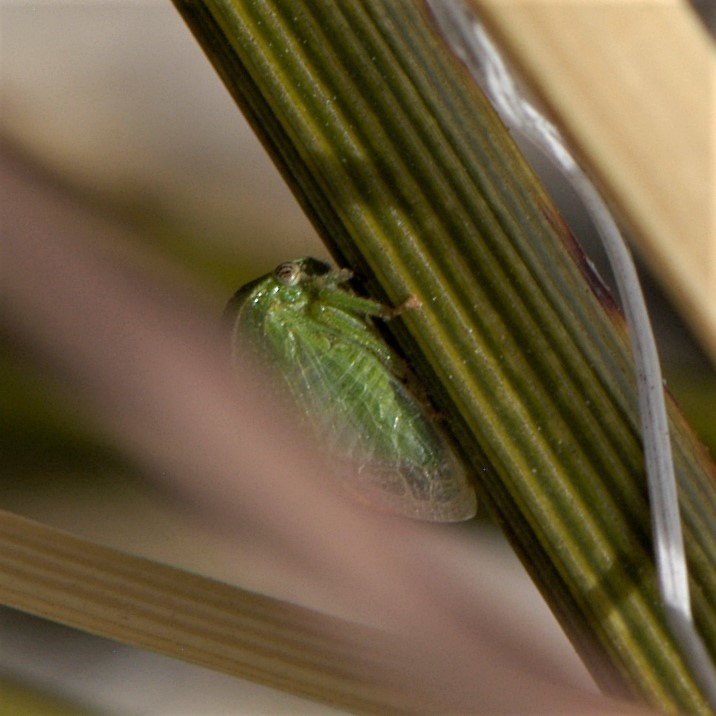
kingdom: Animalia
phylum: Arthropoda
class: Insecta
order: Hemiptera
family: Membracidae
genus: Spissistilus
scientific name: Spissistilus festina
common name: Membracid bug
